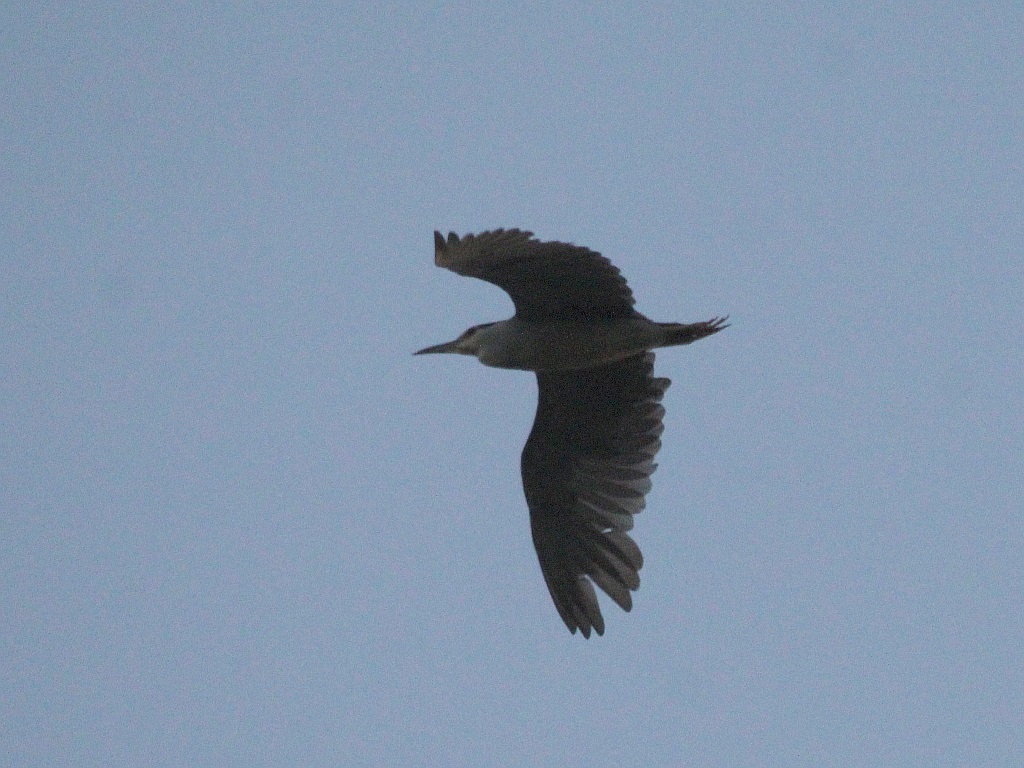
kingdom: Animalia
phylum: Chordata
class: Aves
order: Pelecaniformes
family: Ardeidae
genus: Nycticorax
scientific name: Nycticorax nycticorax
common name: Black-crowned night heron
